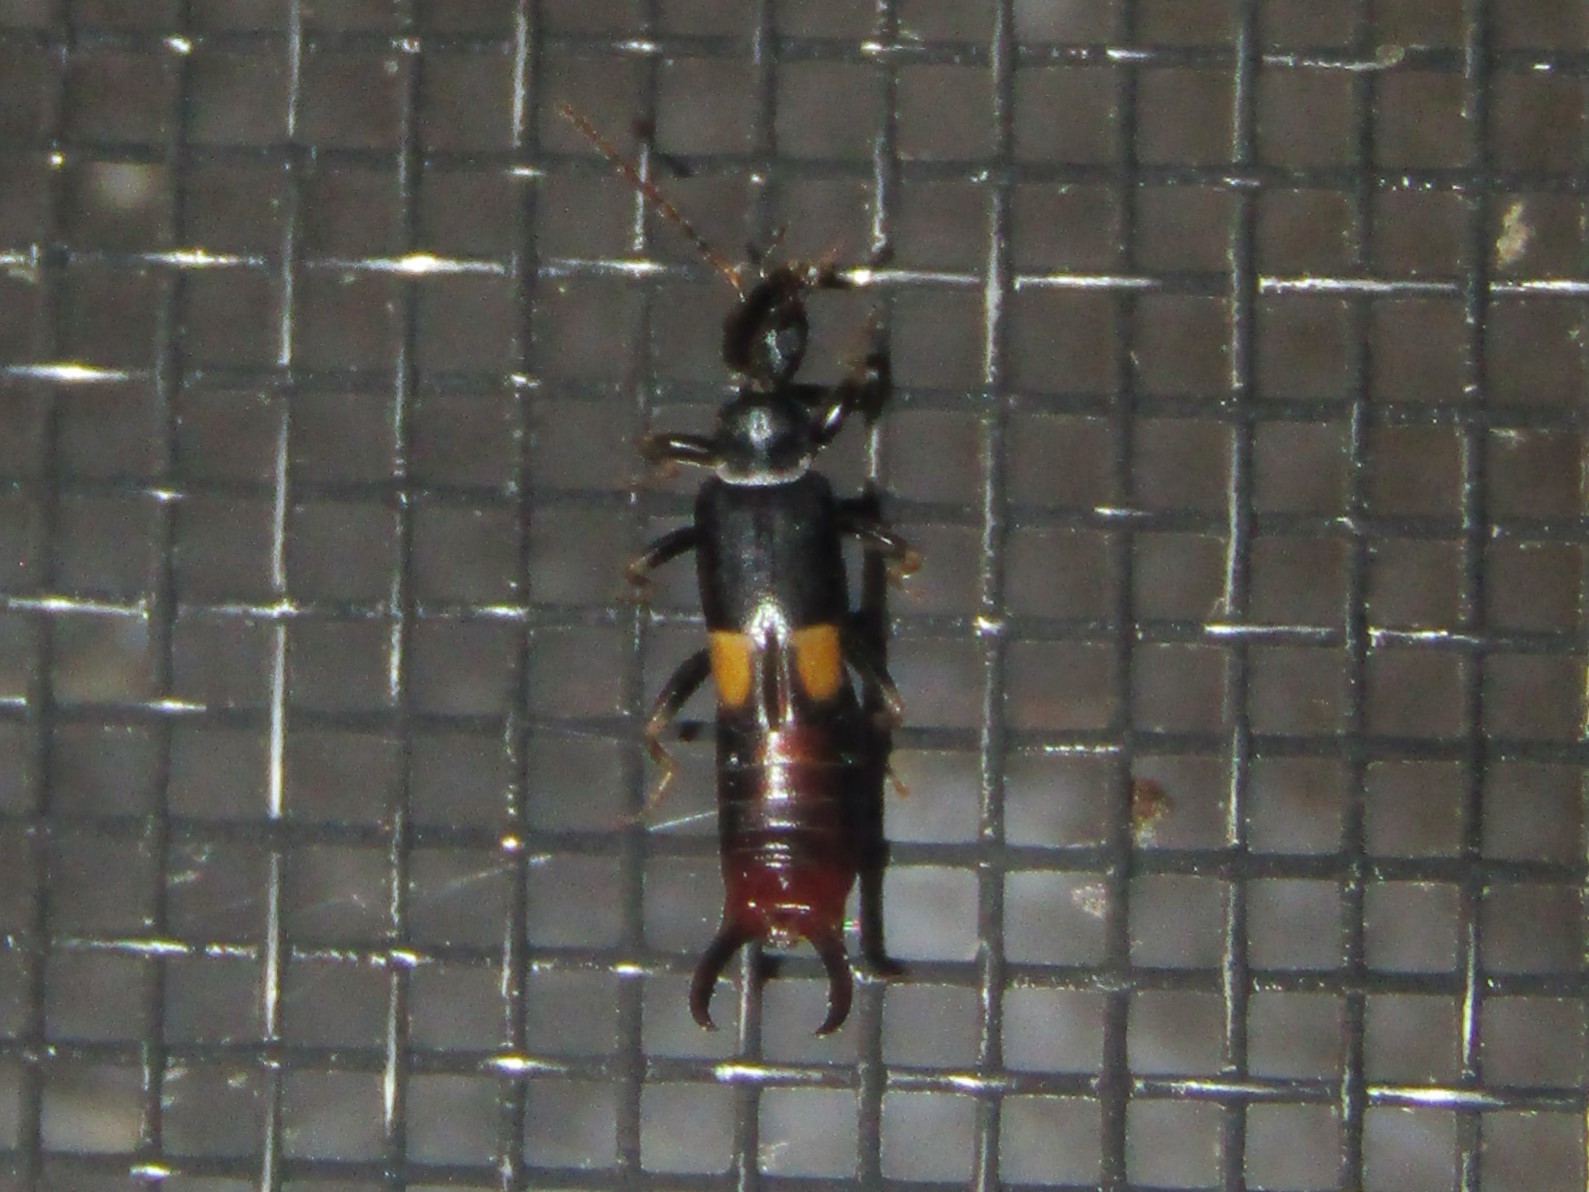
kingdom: Animalia
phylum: Arthropoda
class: Insecta
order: Dermaptera
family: Spongiphoridae
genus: Marava
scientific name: Marava arachidis
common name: Little earwig
